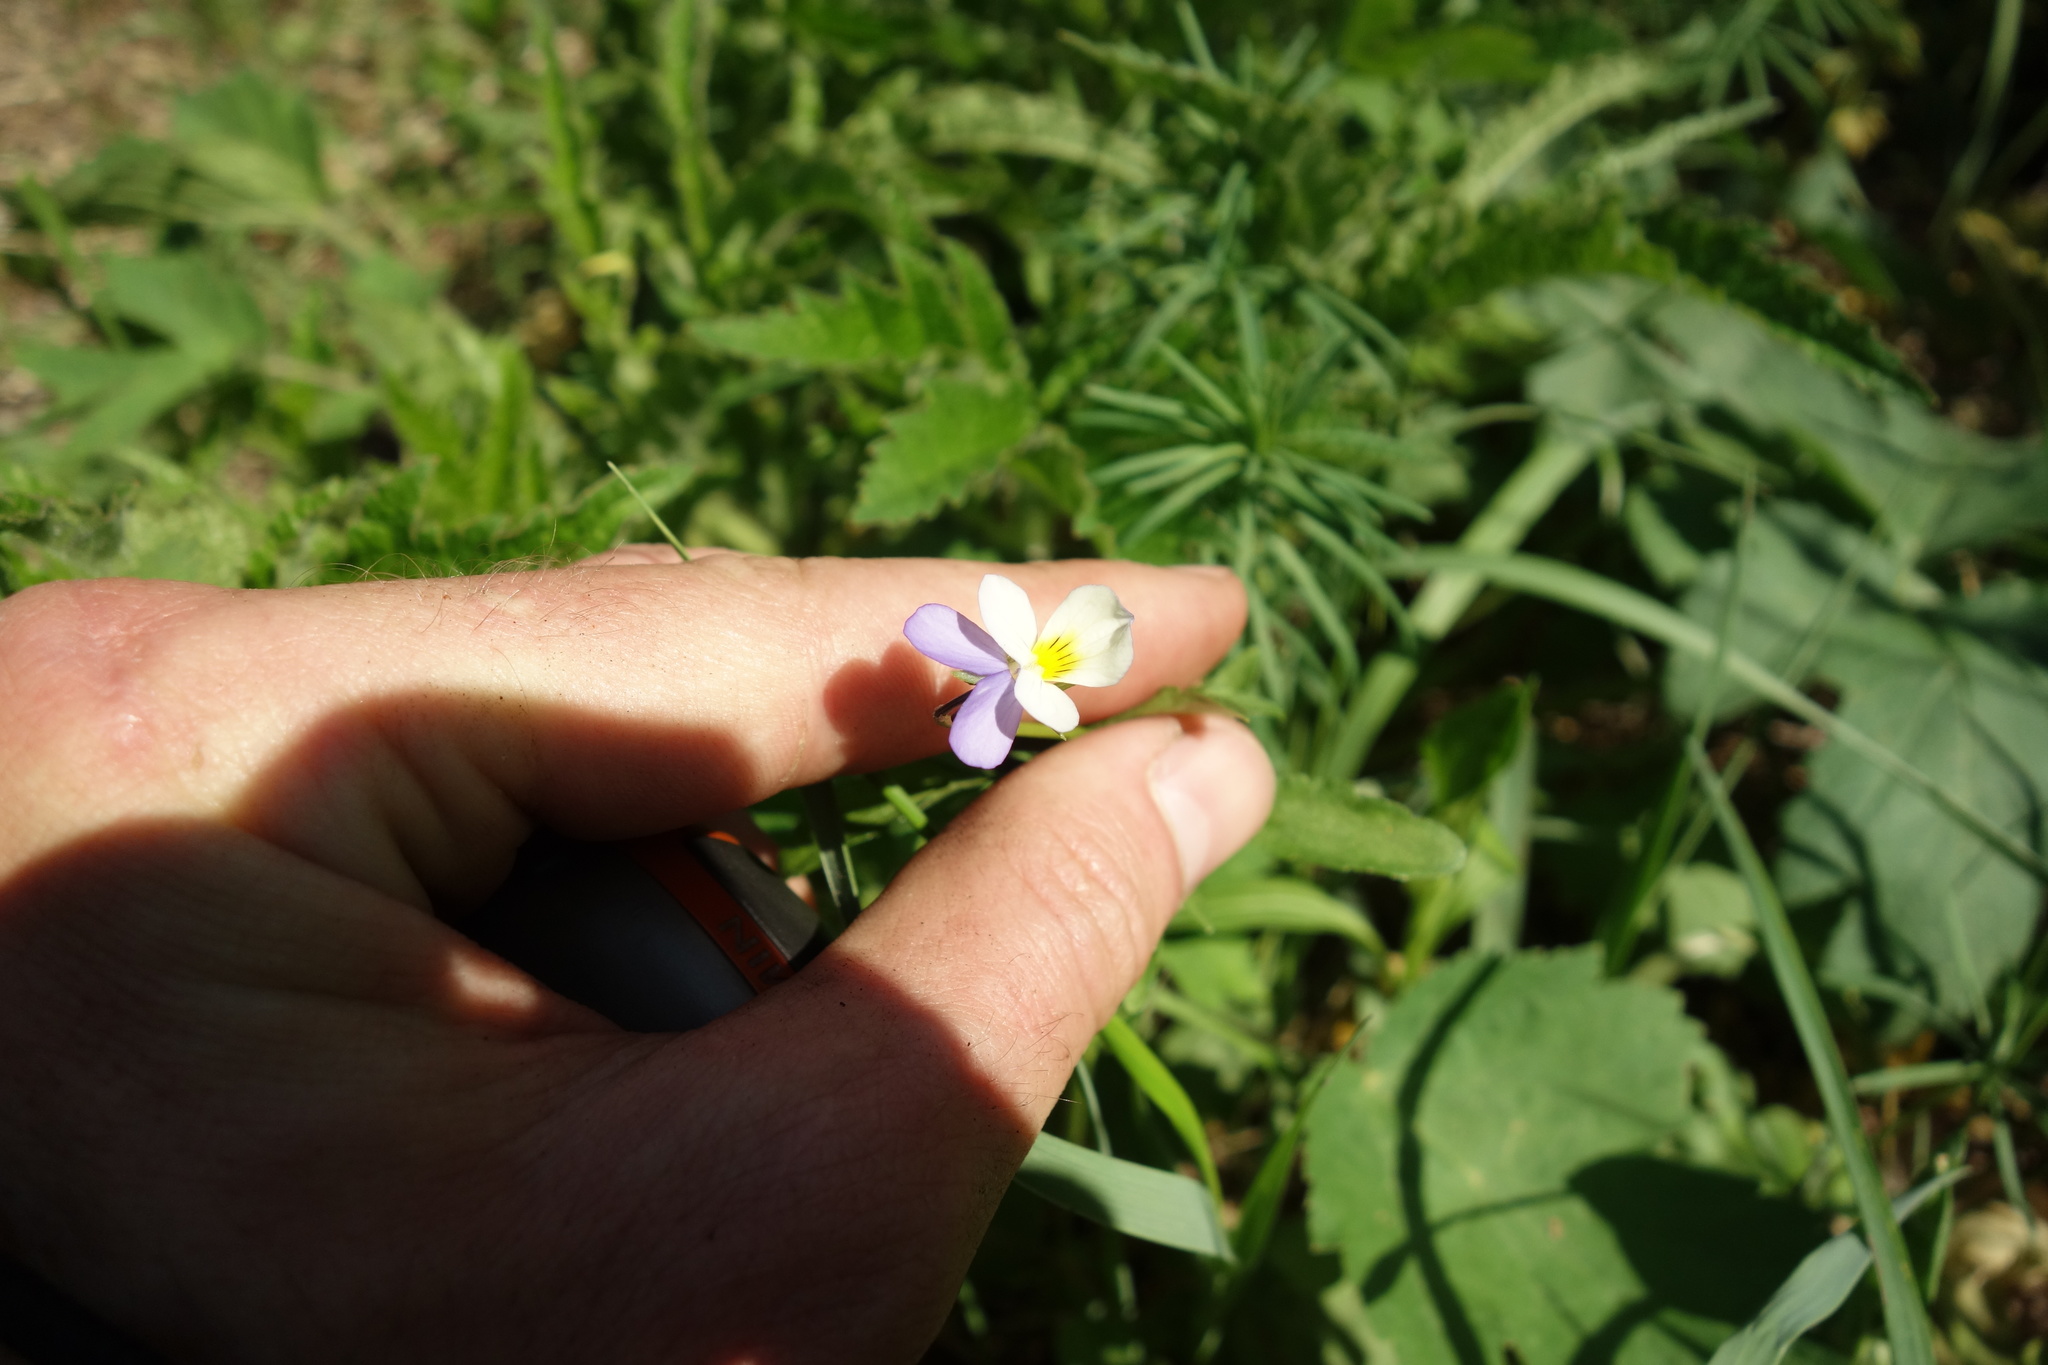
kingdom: Plantae
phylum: Tracheophyta
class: Magnoliopsida
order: Malpighiales
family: Violaceae
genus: Viola
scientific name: Viola tricolor
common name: Pansy
